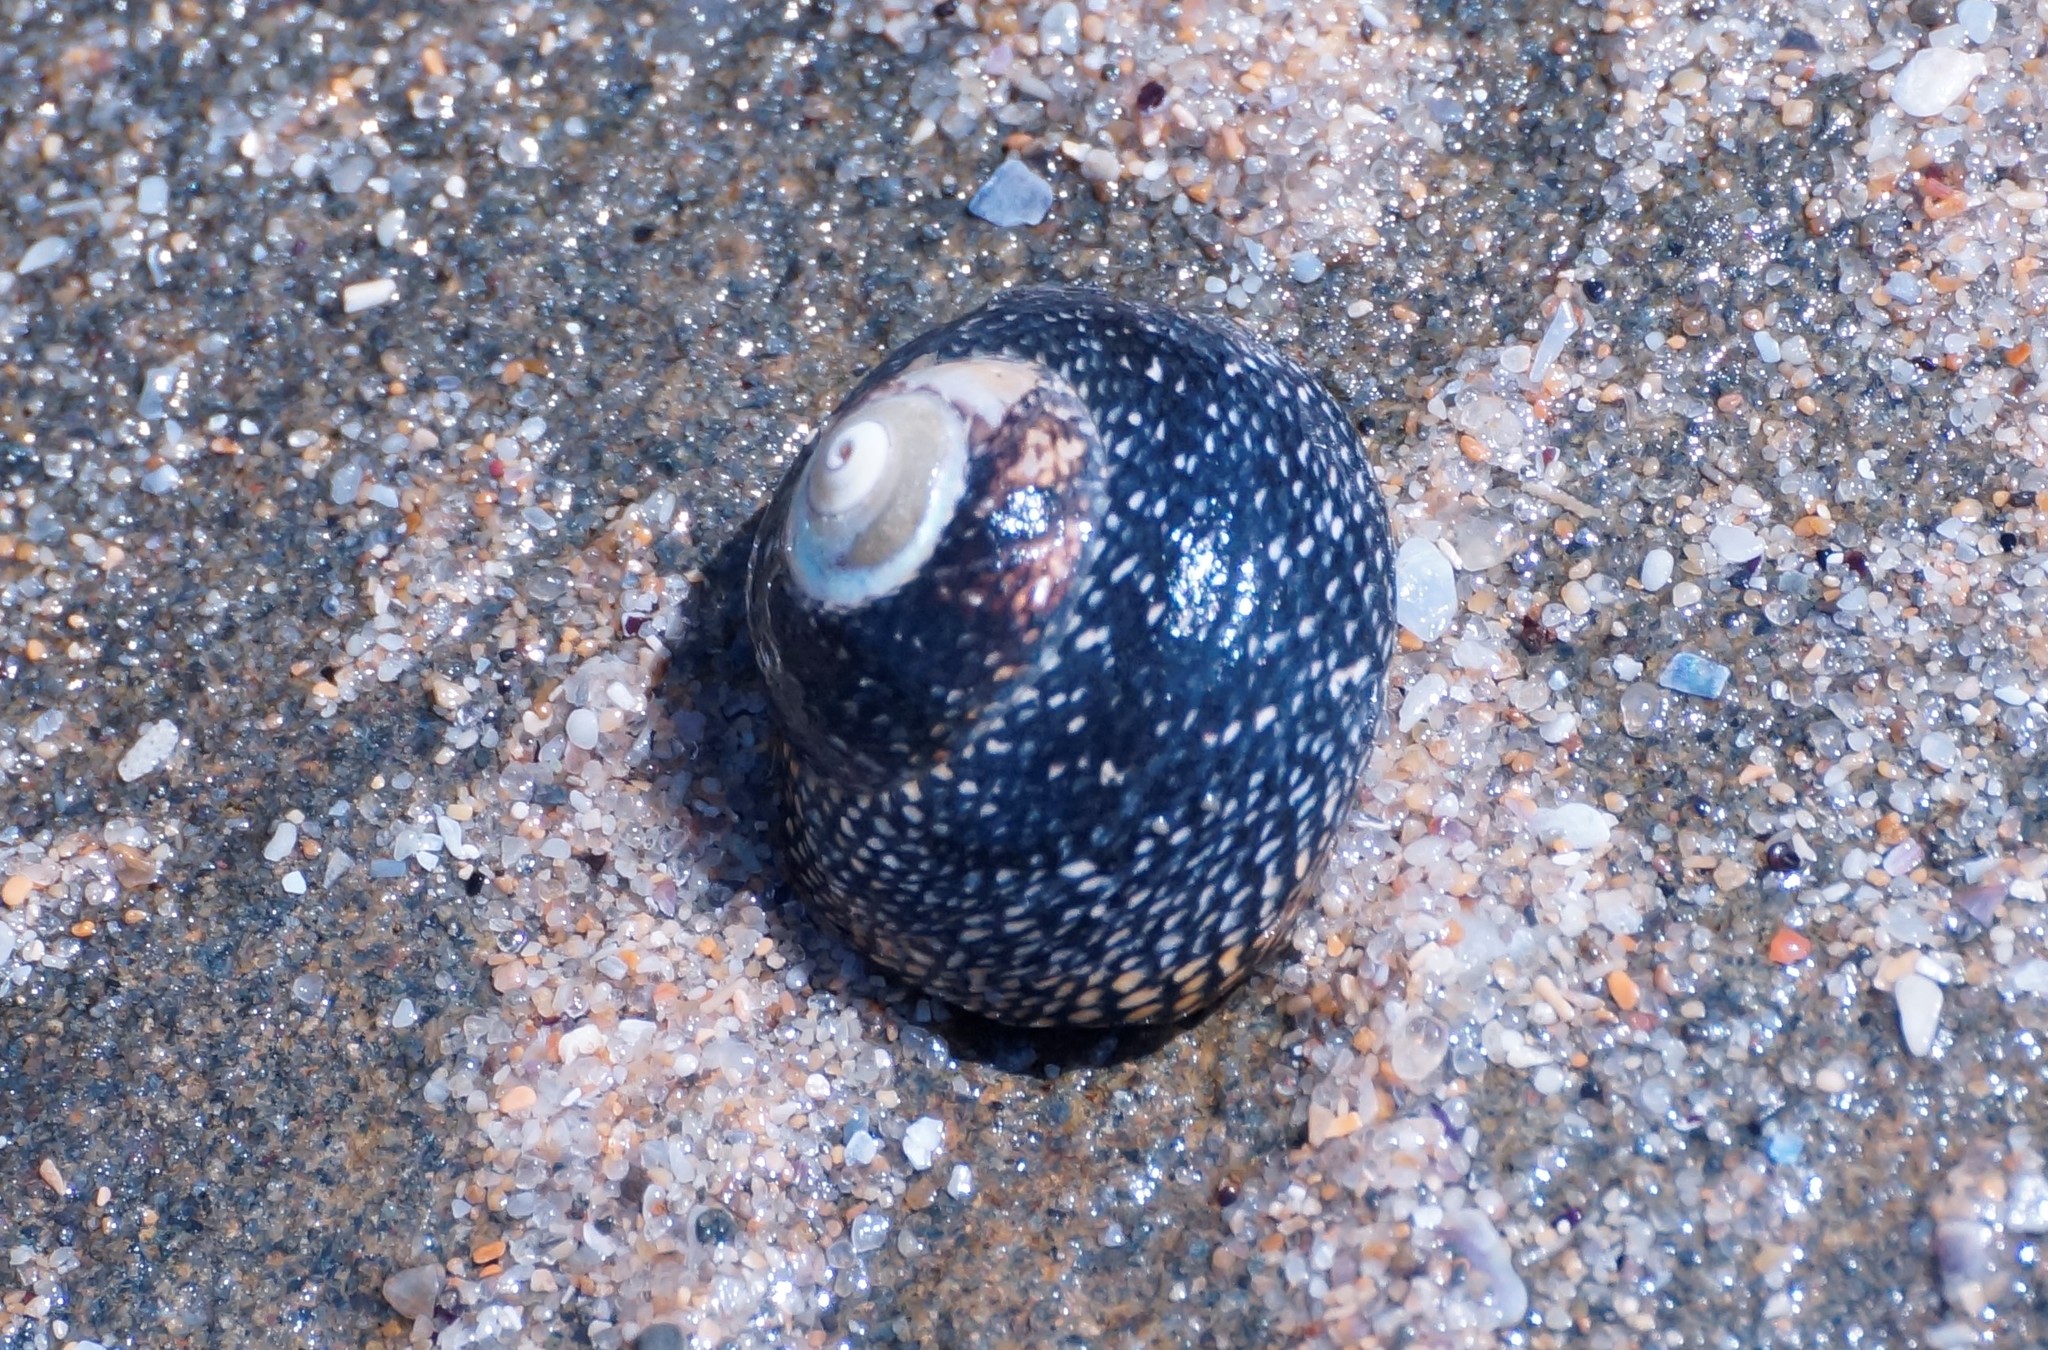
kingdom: Animalia
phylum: Mollusca
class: Gastropoda
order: Trochida
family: Trochidae
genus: Chlorodiloma
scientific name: Chlorodiloma odontis
